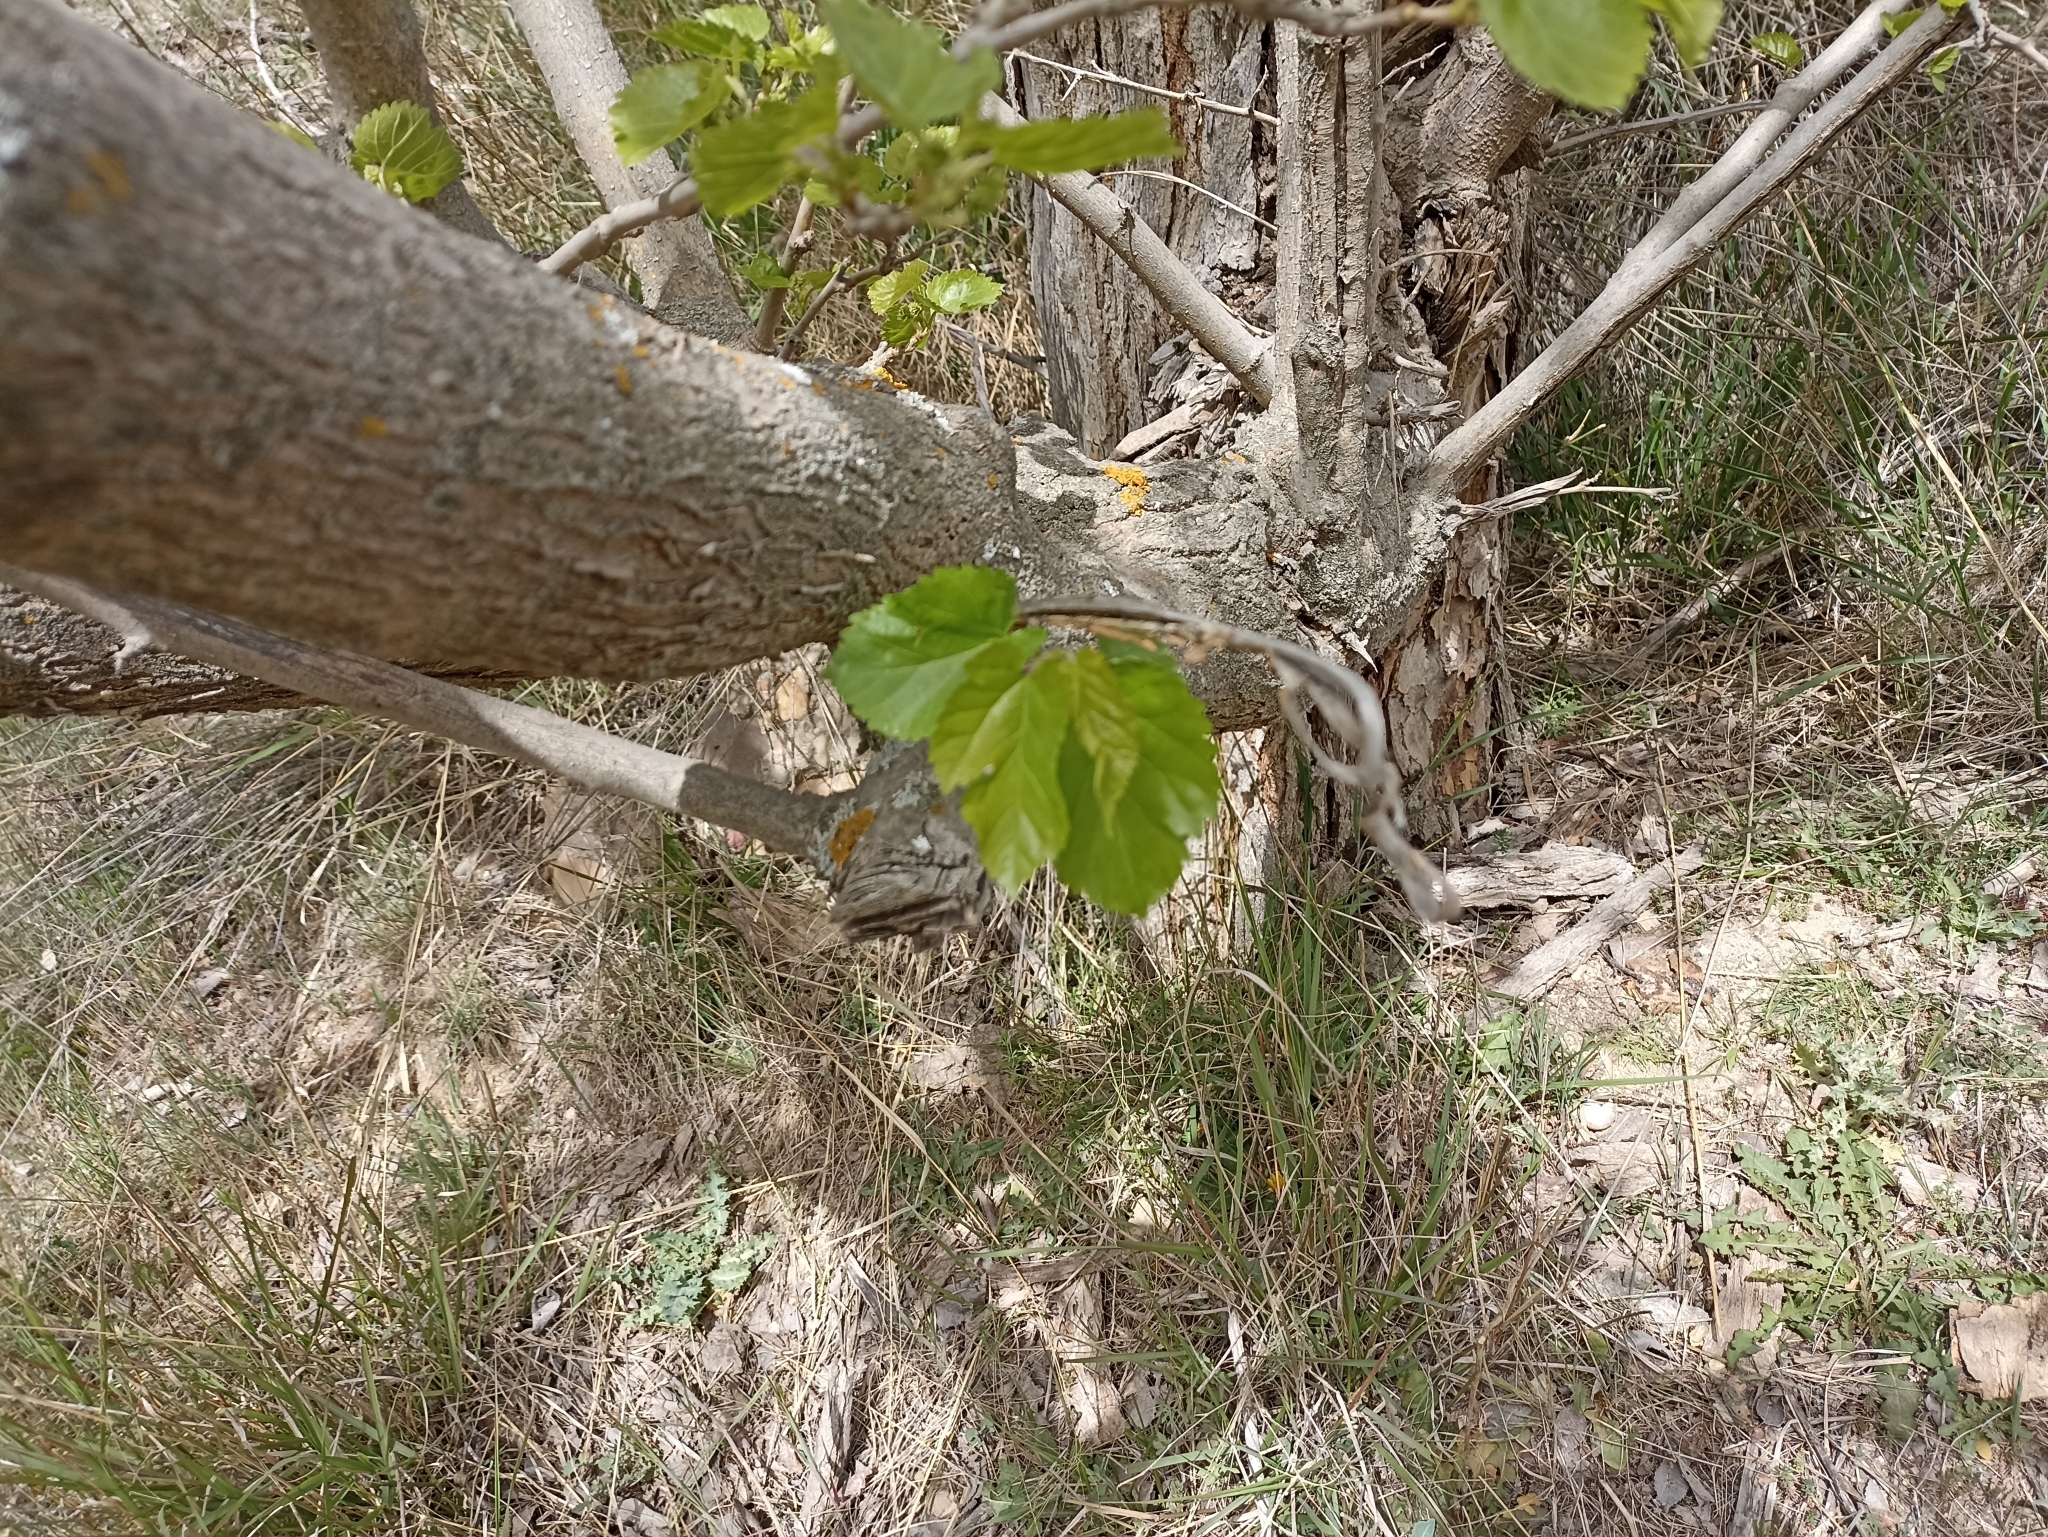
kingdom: Plantae
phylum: Tracheophyta
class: Magnoliopsida
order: Rosales
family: Moraceae
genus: Morus
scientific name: Morus alba
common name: White mulberry
